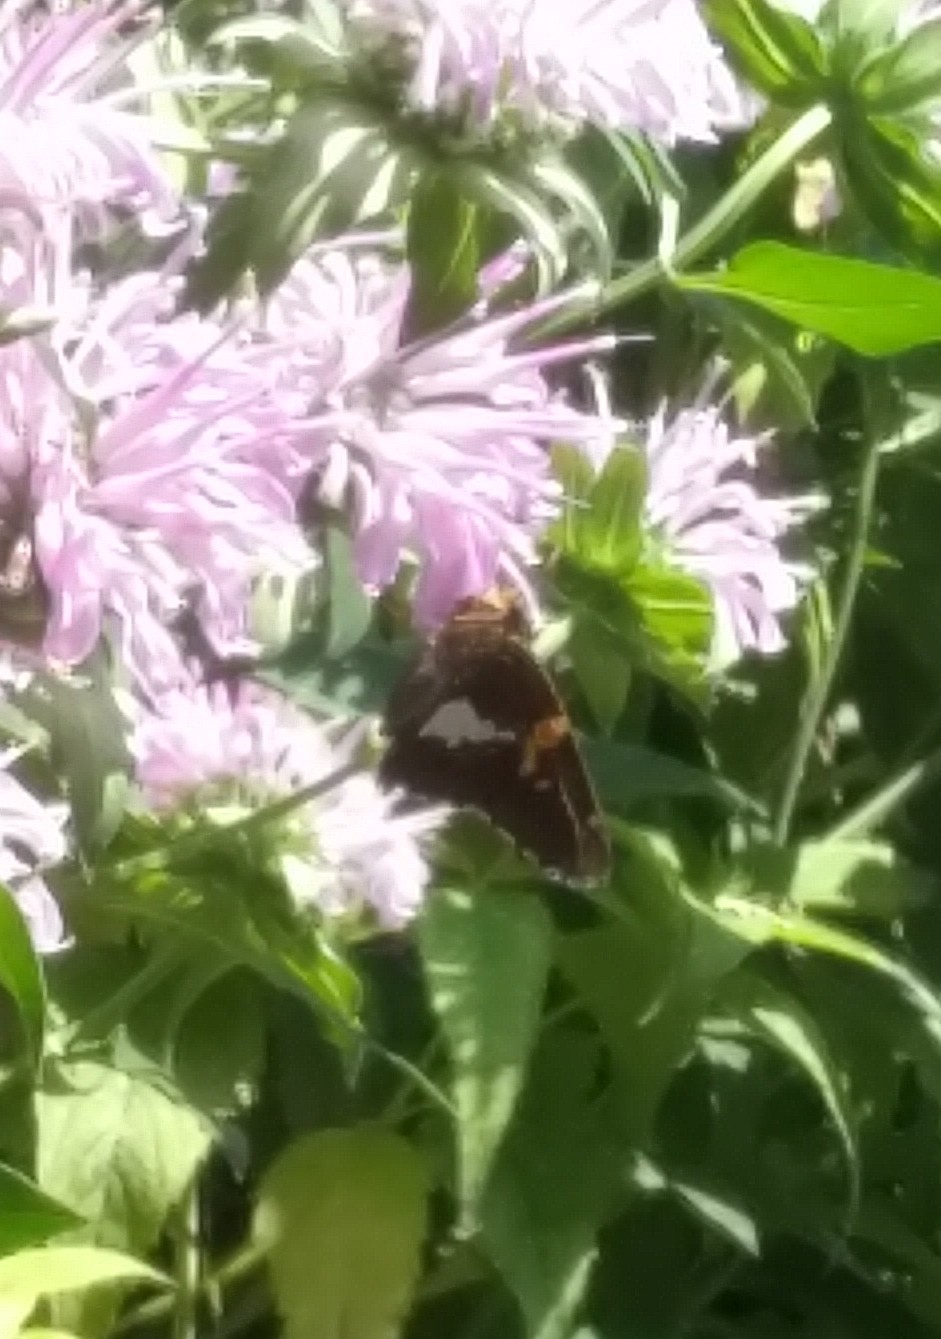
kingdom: Animalia
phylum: Arthropoda
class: Insecta
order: Lepidoptera
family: Hesperiidae
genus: Epargyreus
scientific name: Epargyreus clarus
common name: Silver-spotted skipper
